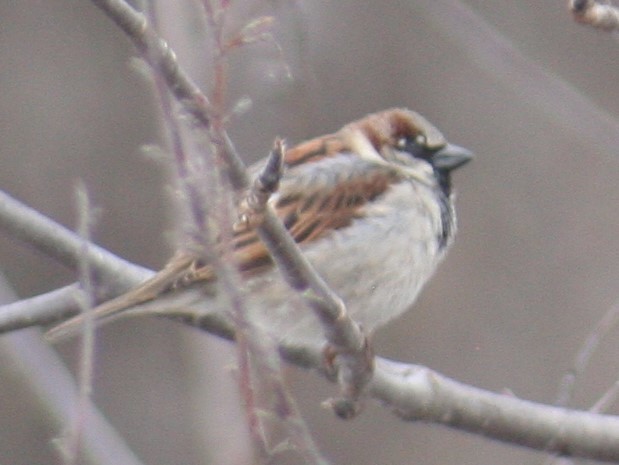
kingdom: Animalia
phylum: Chordata
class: Aves
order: Passeriformes
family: Passeridae
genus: Passer
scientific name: Passer domesticus
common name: House sparrow
